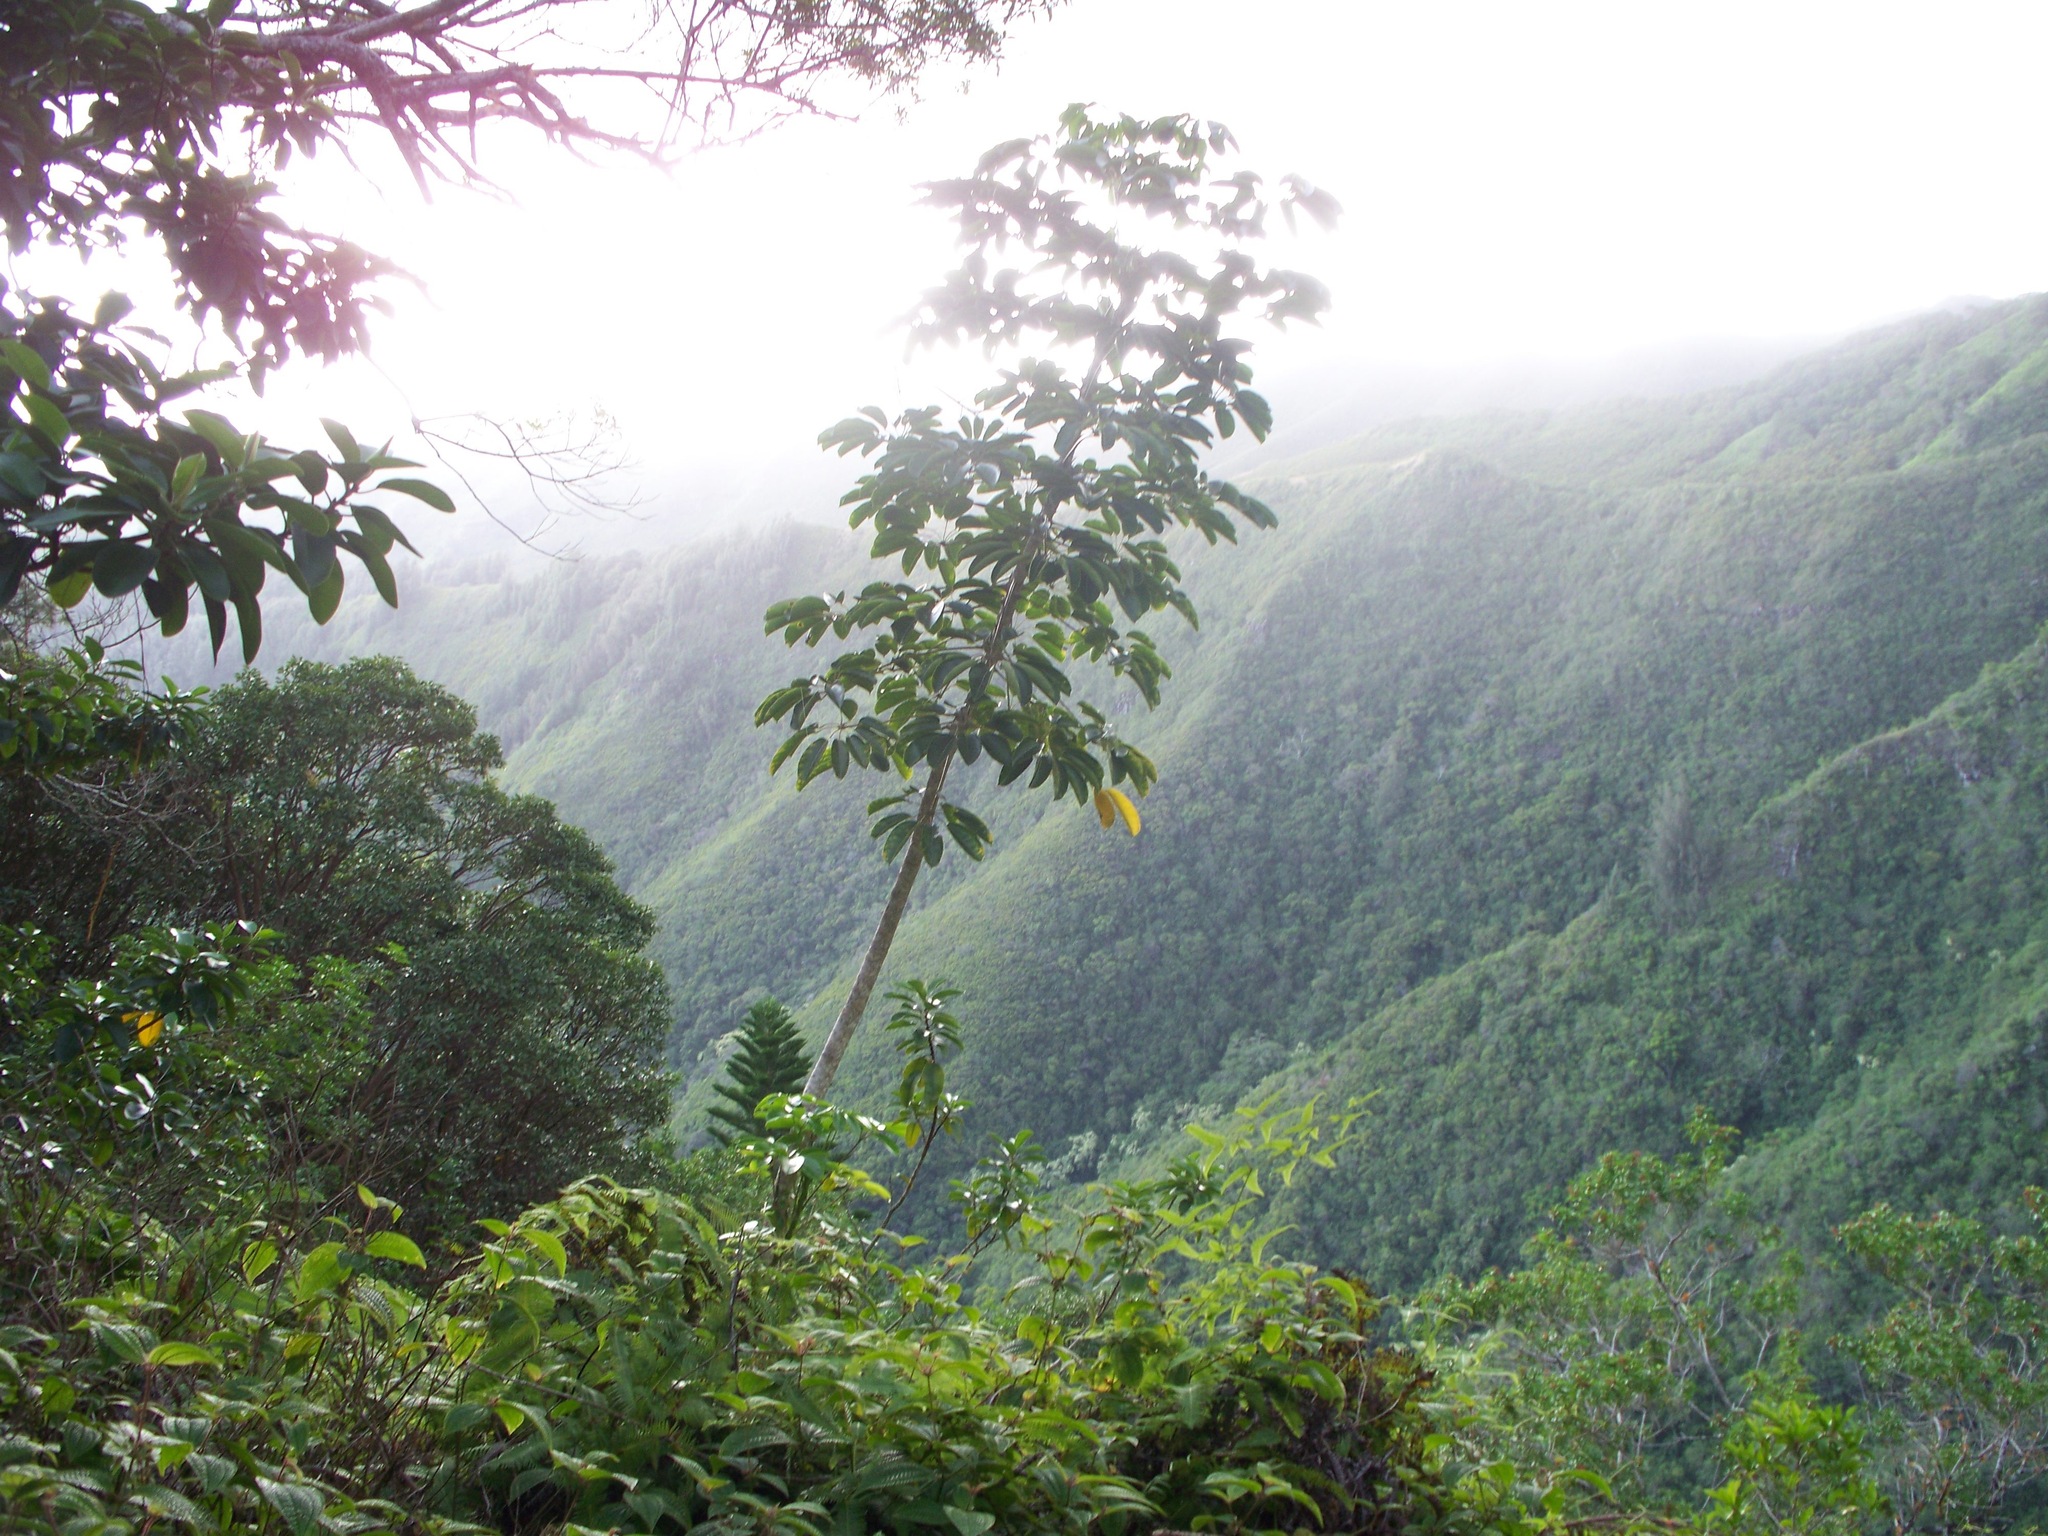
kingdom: Plantae
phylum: Tracheophyta
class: Magnoliopsida
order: Rosales
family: Urticaceae
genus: Cecropia
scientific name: Cecropia obtusifolia
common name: Trumpet tree
